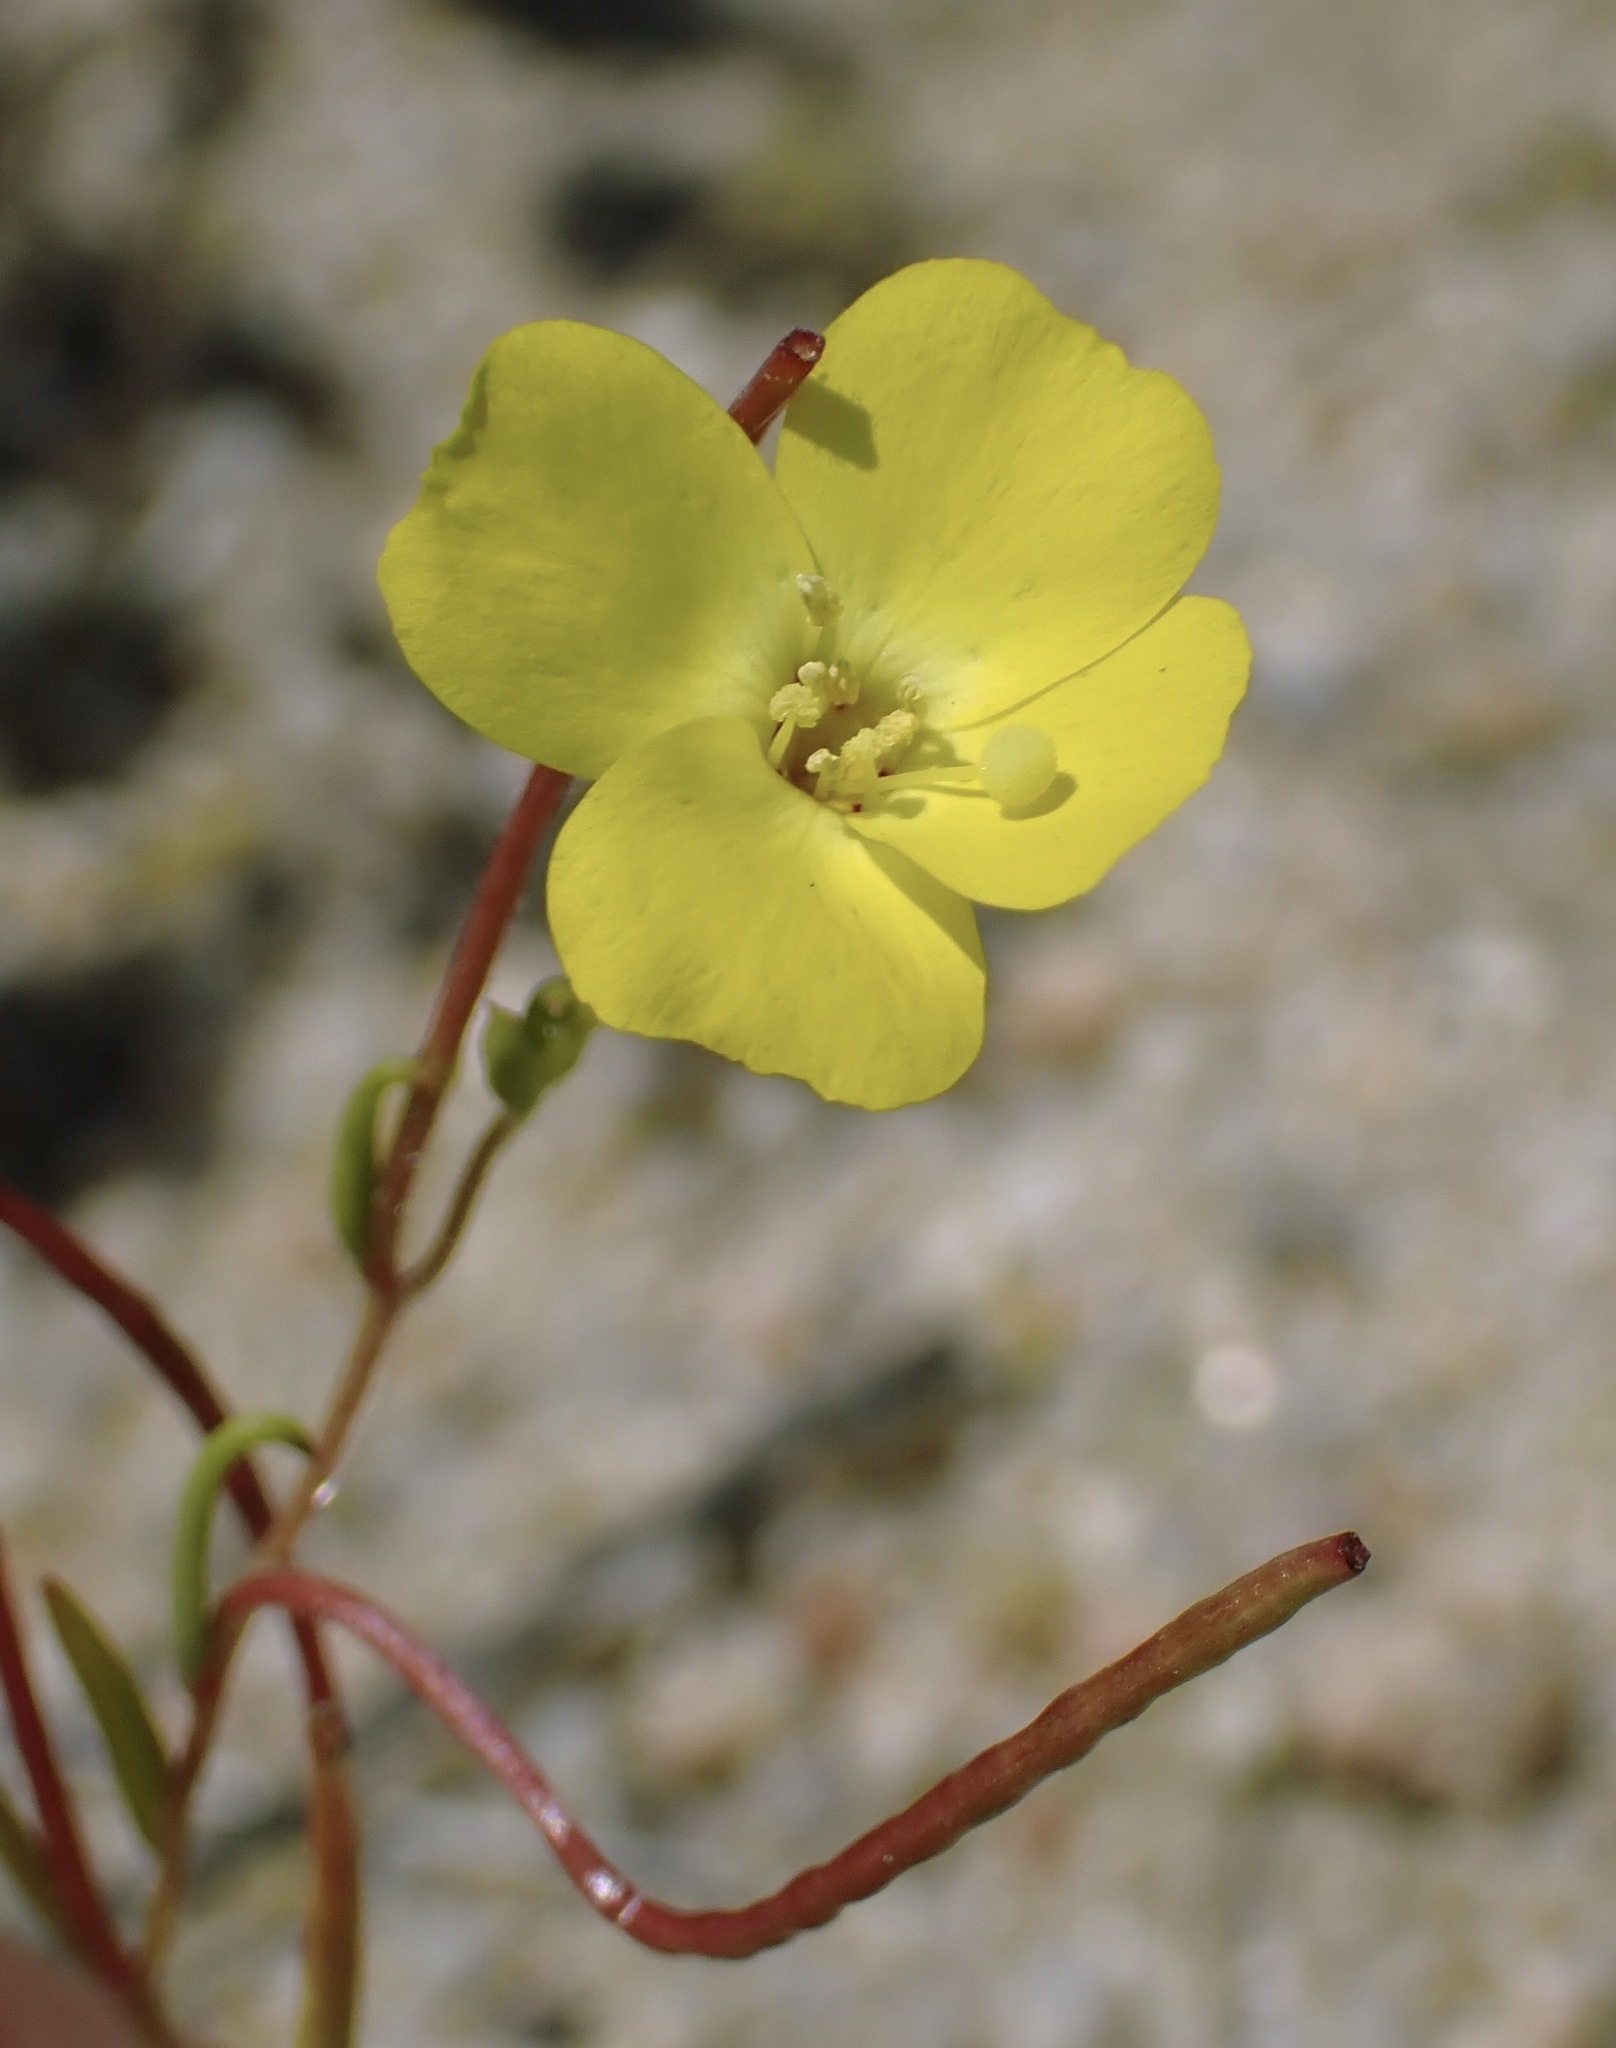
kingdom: Plantae
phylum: Tracheophyta
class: Magnoliopsida
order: Myrtales
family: Onagraceae
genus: Camissonia
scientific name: Camissonia campestris
